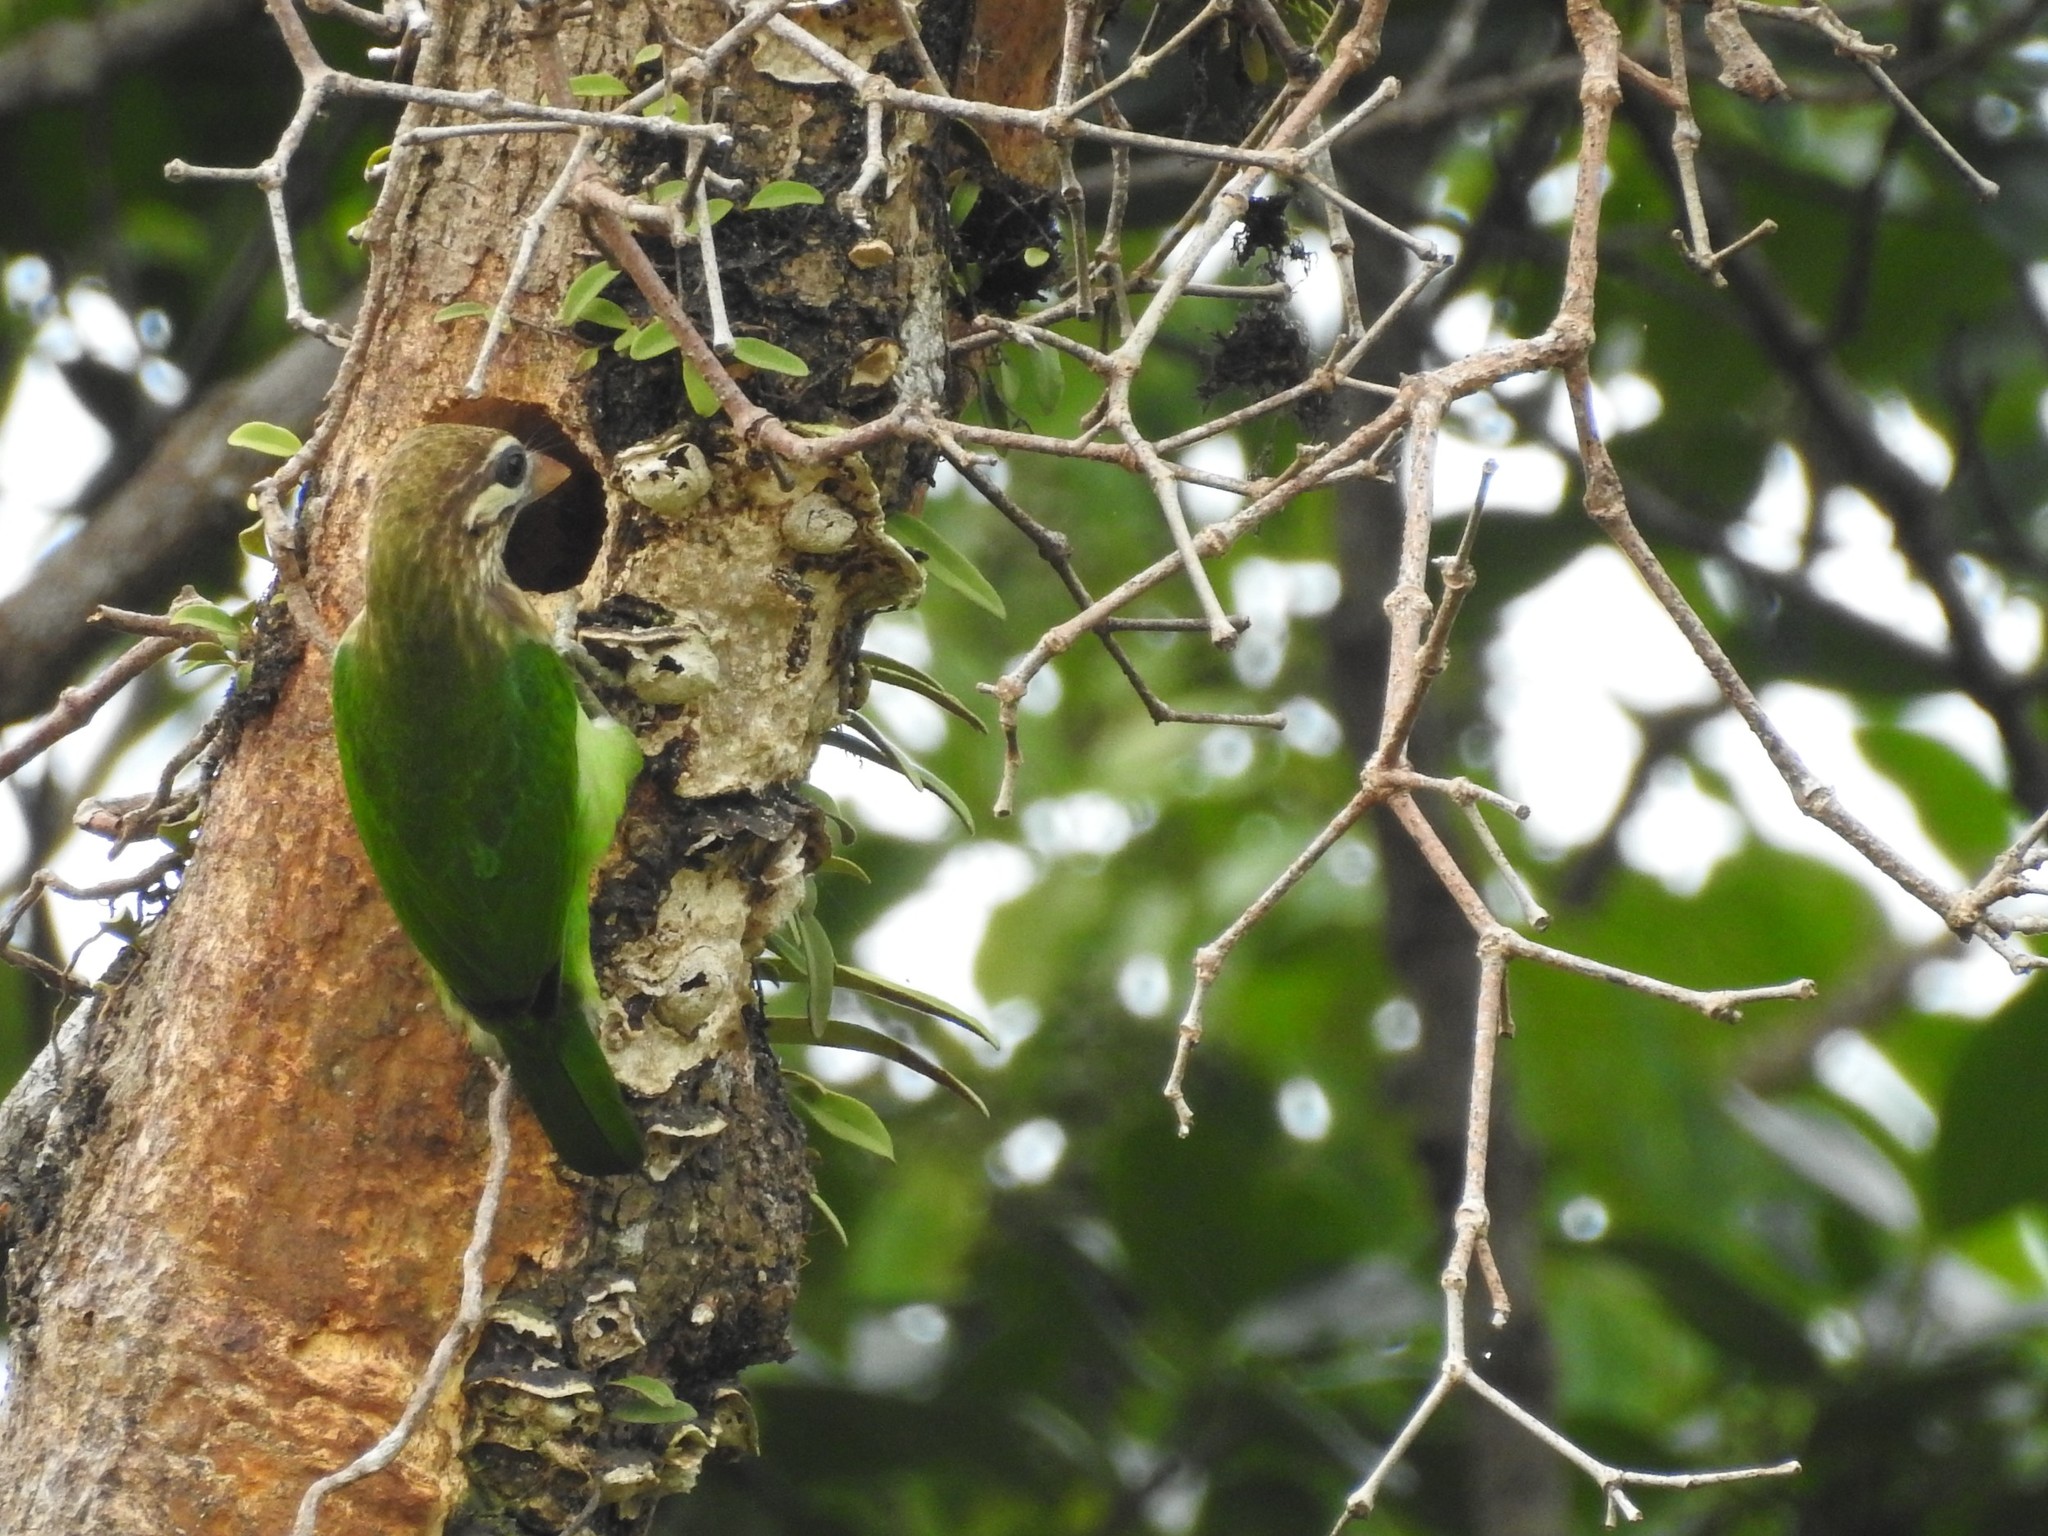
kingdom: Animalia
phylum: Chordata
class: Aves
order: Piciformes
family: Megalaimidae
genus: Psilopogon
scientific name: Psilopogon viridis
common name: White-cheeked barbet
